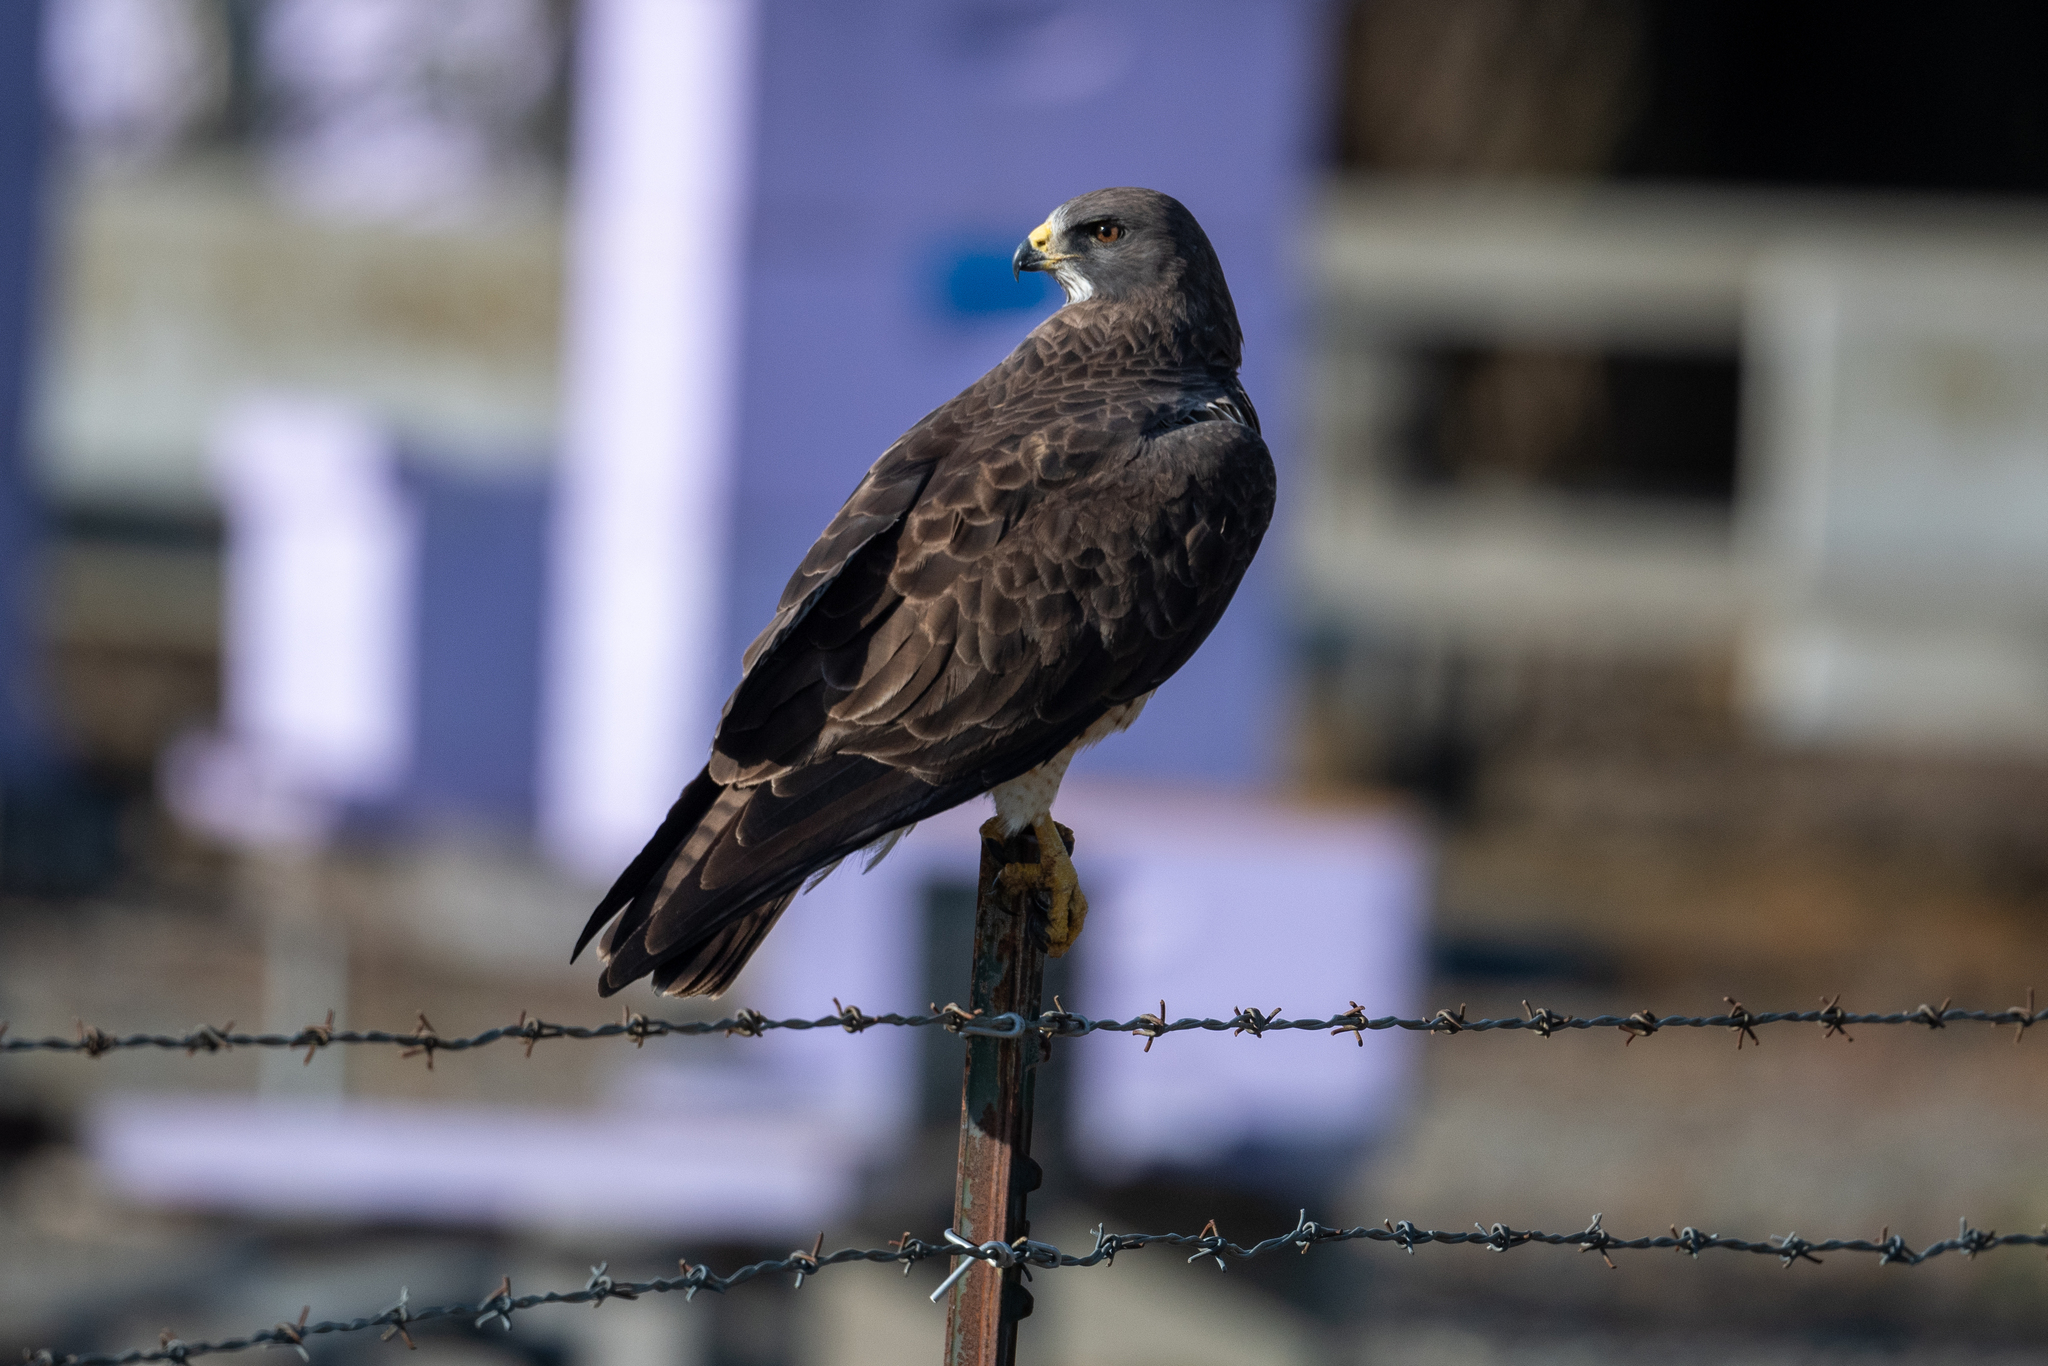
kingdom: Animalia
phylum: Chordata
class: Aves
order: Accipitriformes
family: Accipitridae
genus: Buteo
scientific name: Buteo swainsoni
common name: Swainson's hawk
